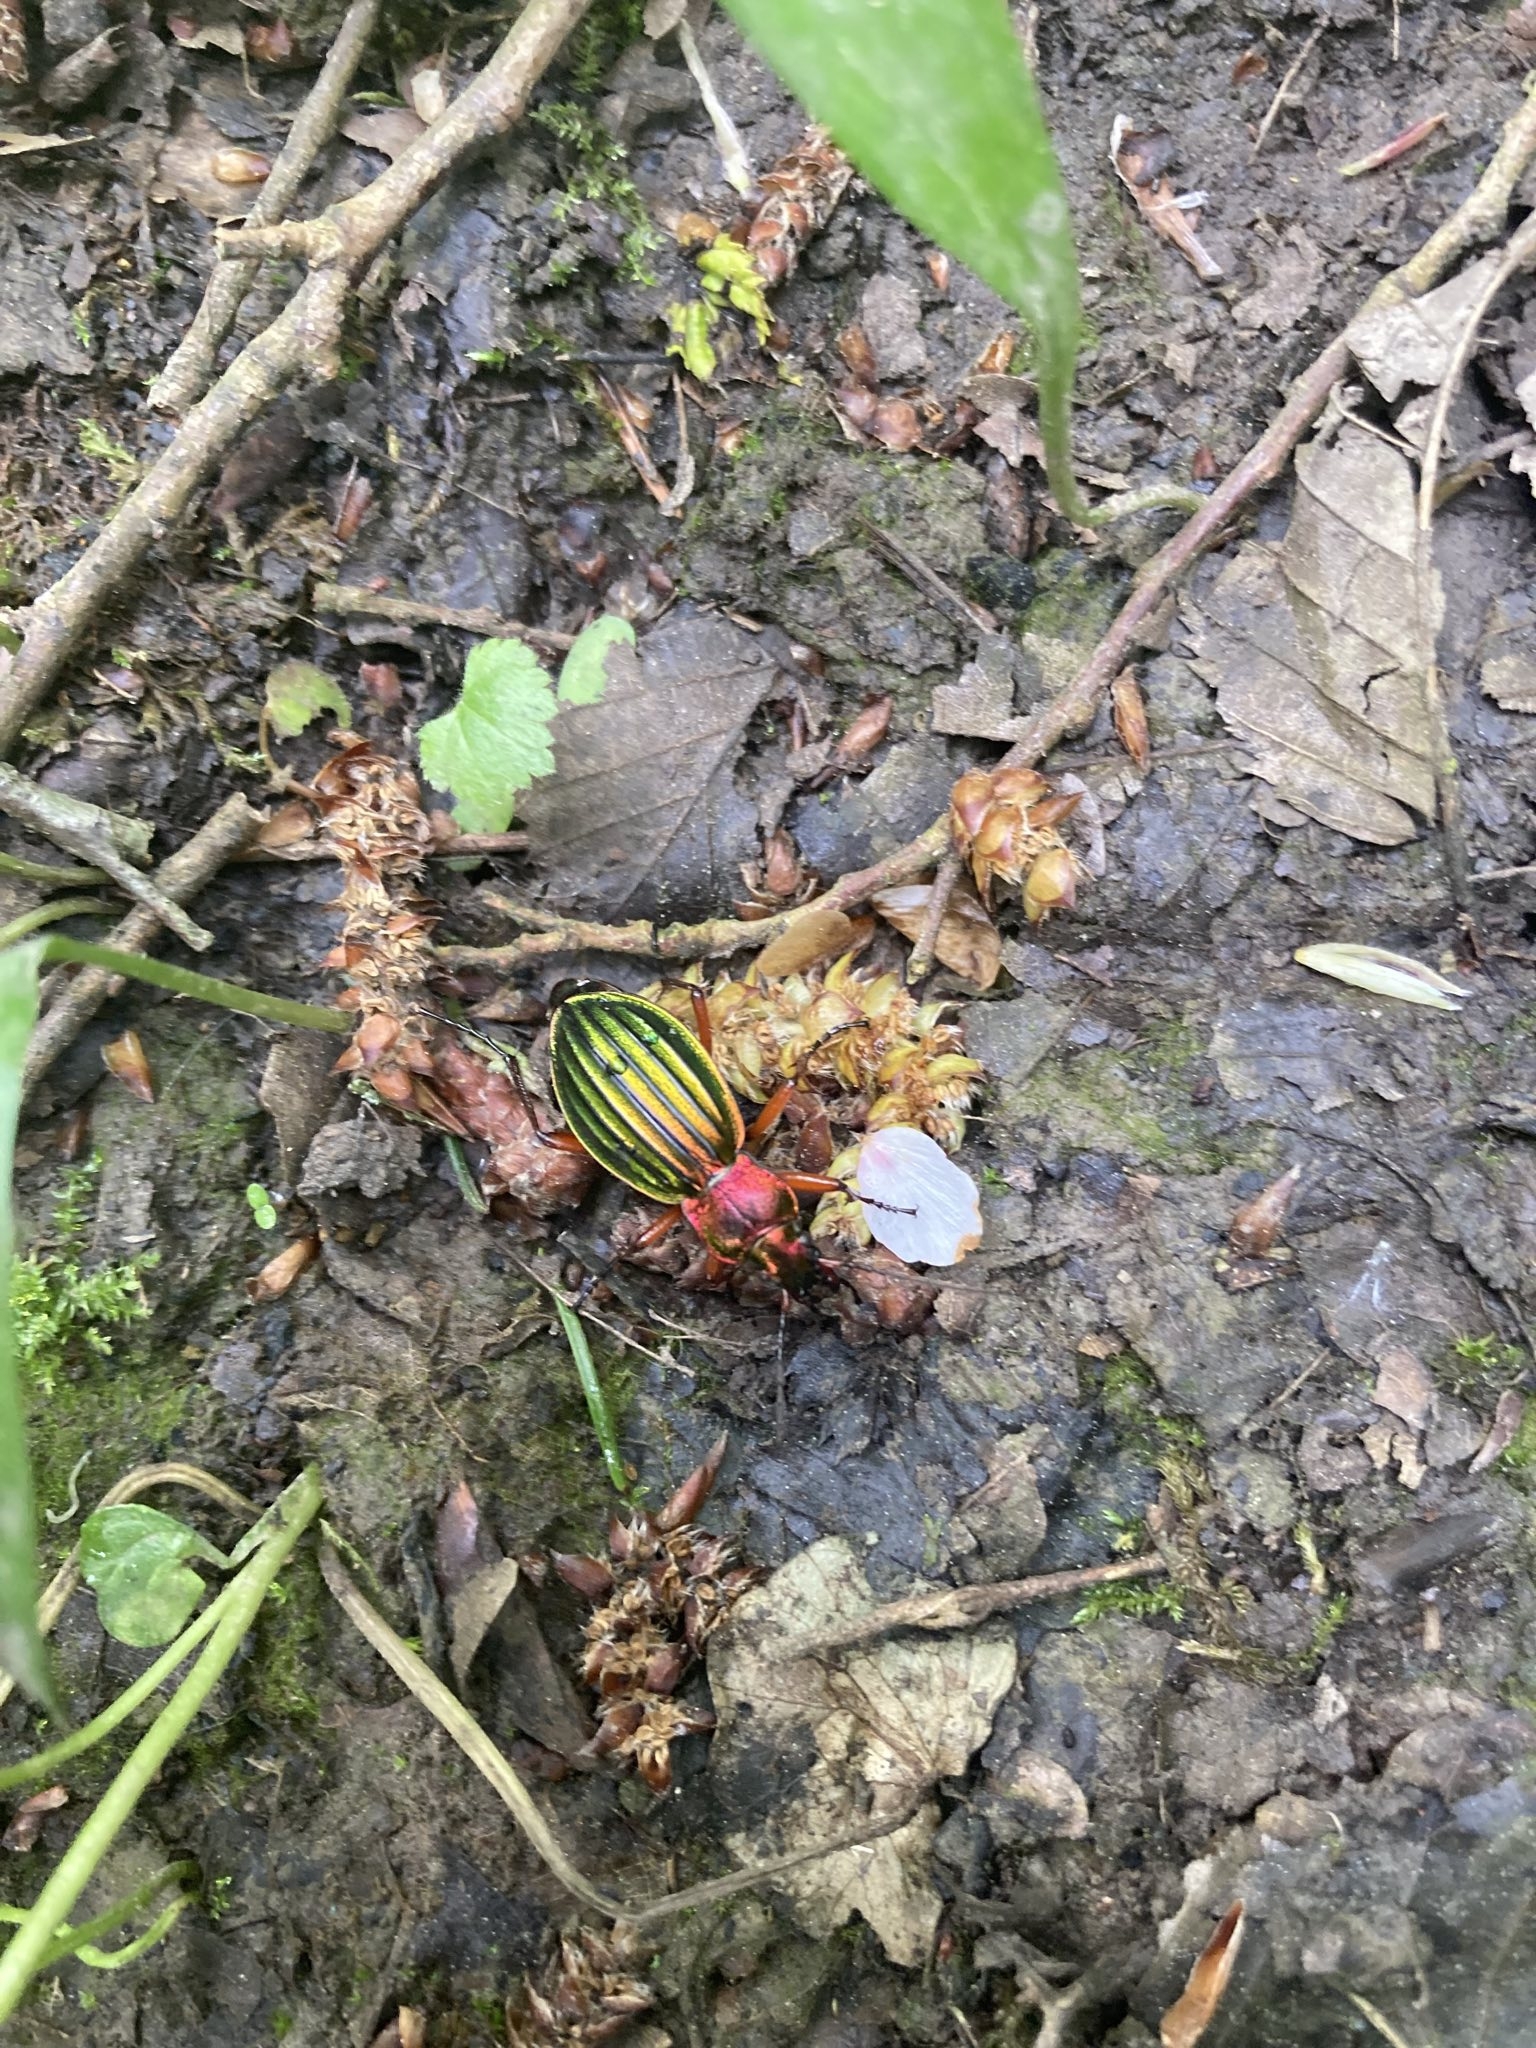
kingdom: Animalia
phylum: Arthropoda
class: Insecta
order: Coleoptera
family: Carabidae
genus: Carabus
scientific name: Carabus auronitens
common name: Carabus auronitens
